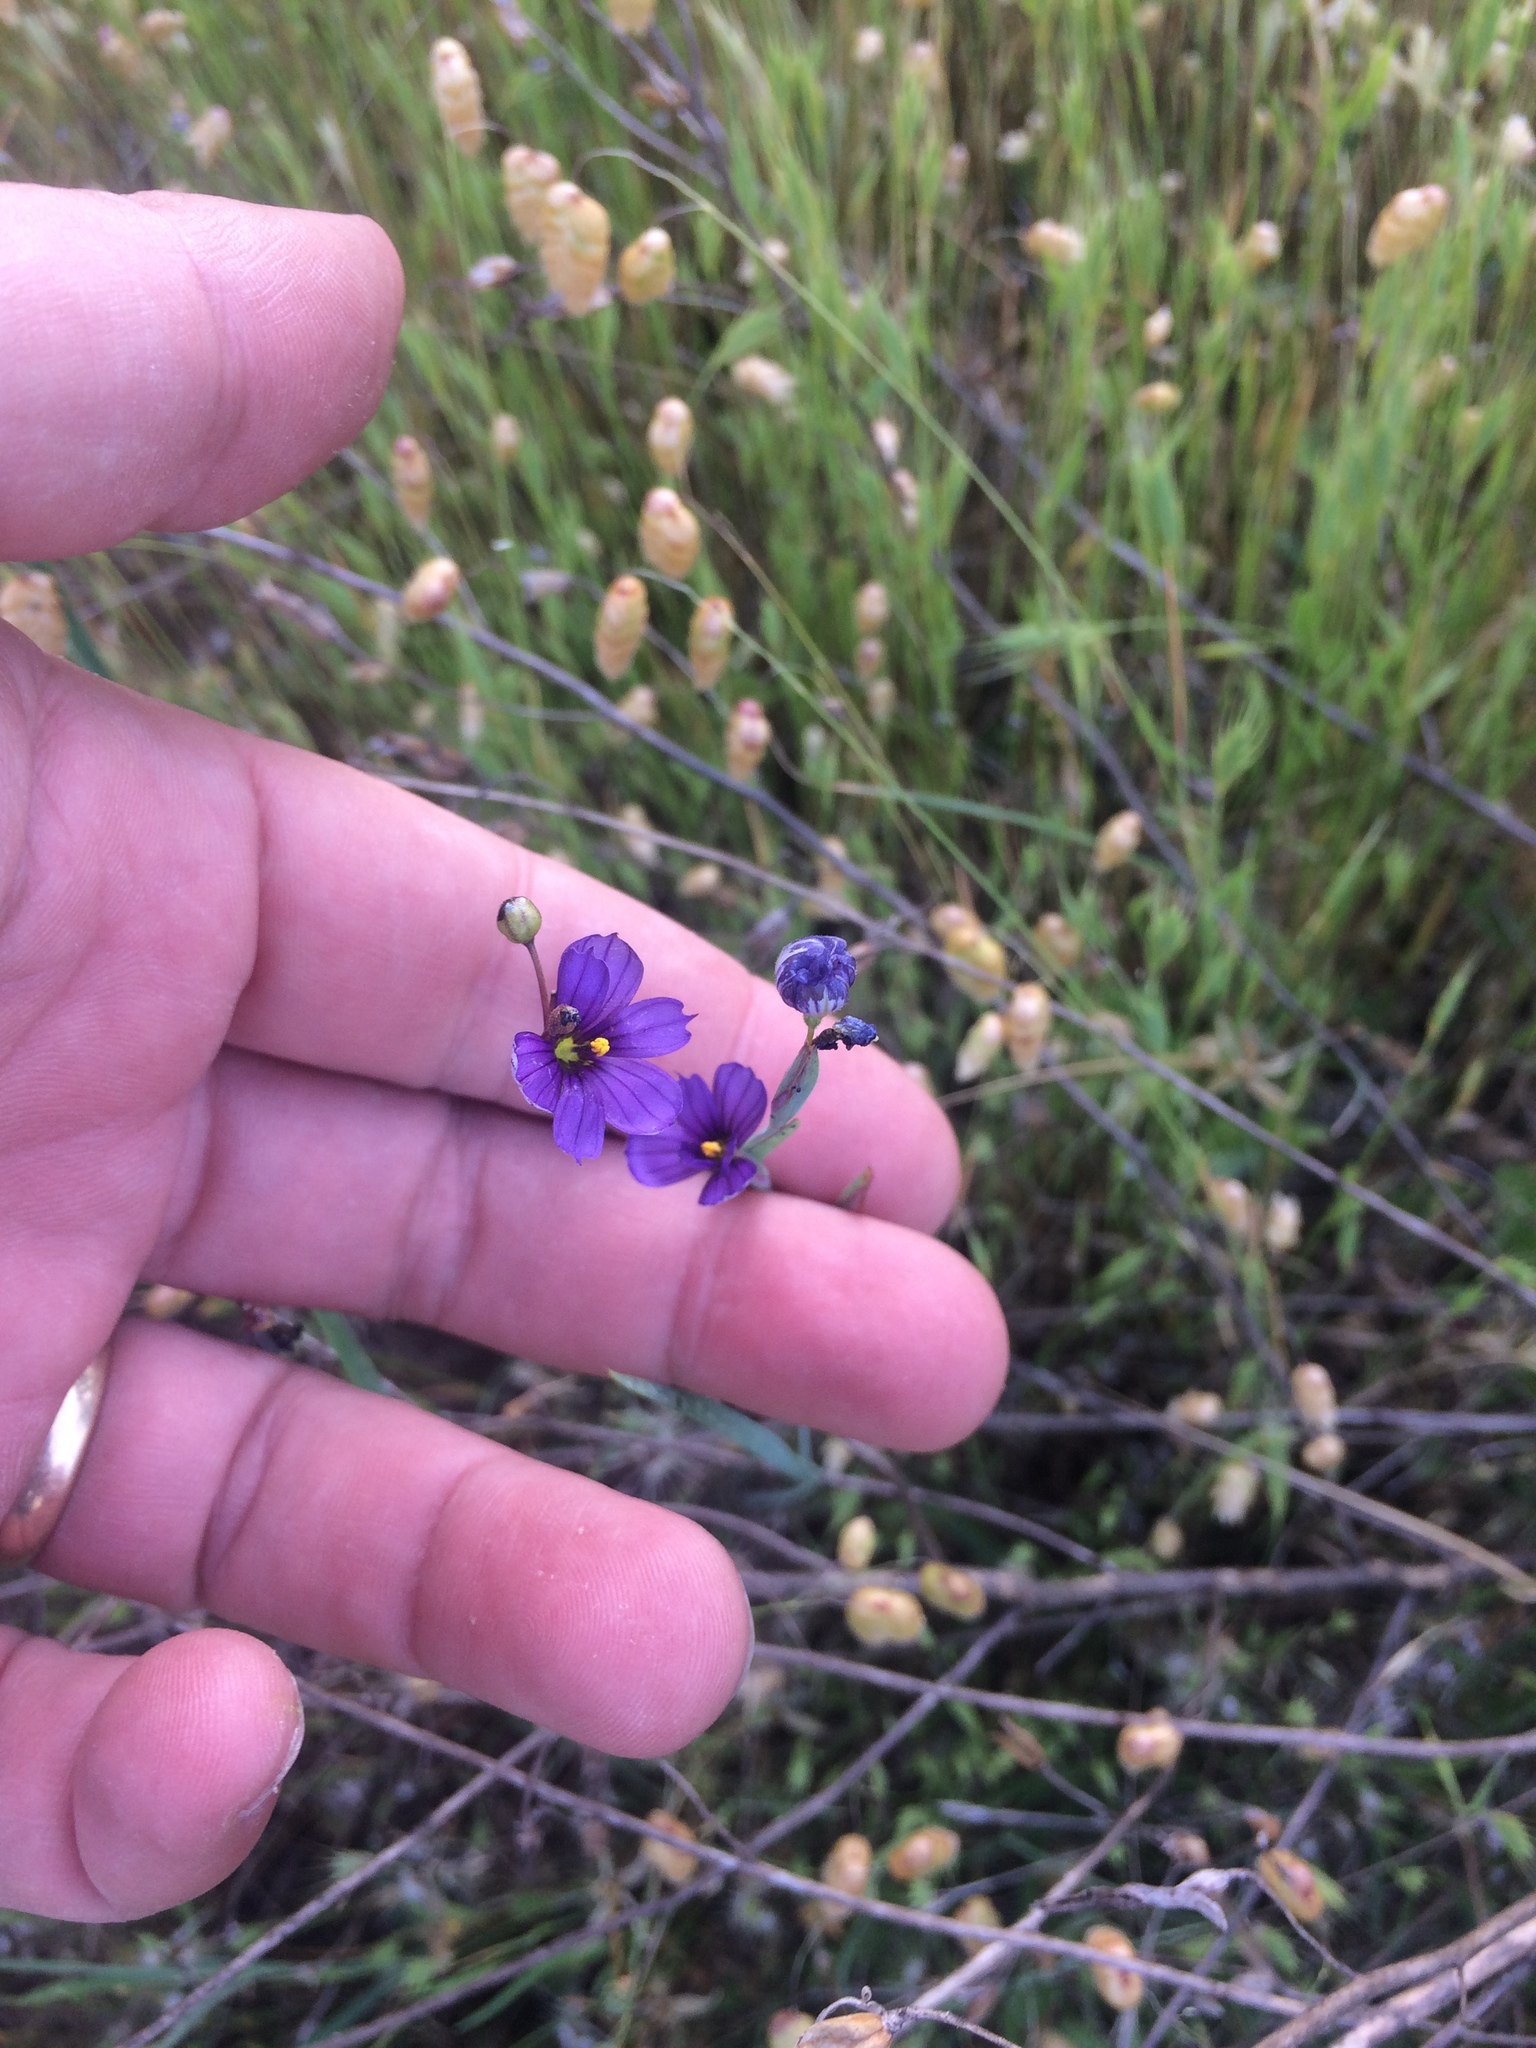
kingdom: Plantae
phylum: Tracheophyta
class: Liliopsida
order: Asparagales
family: Iridaceae
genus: Sisyrinchium
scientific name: Sisyrinchium bellum
